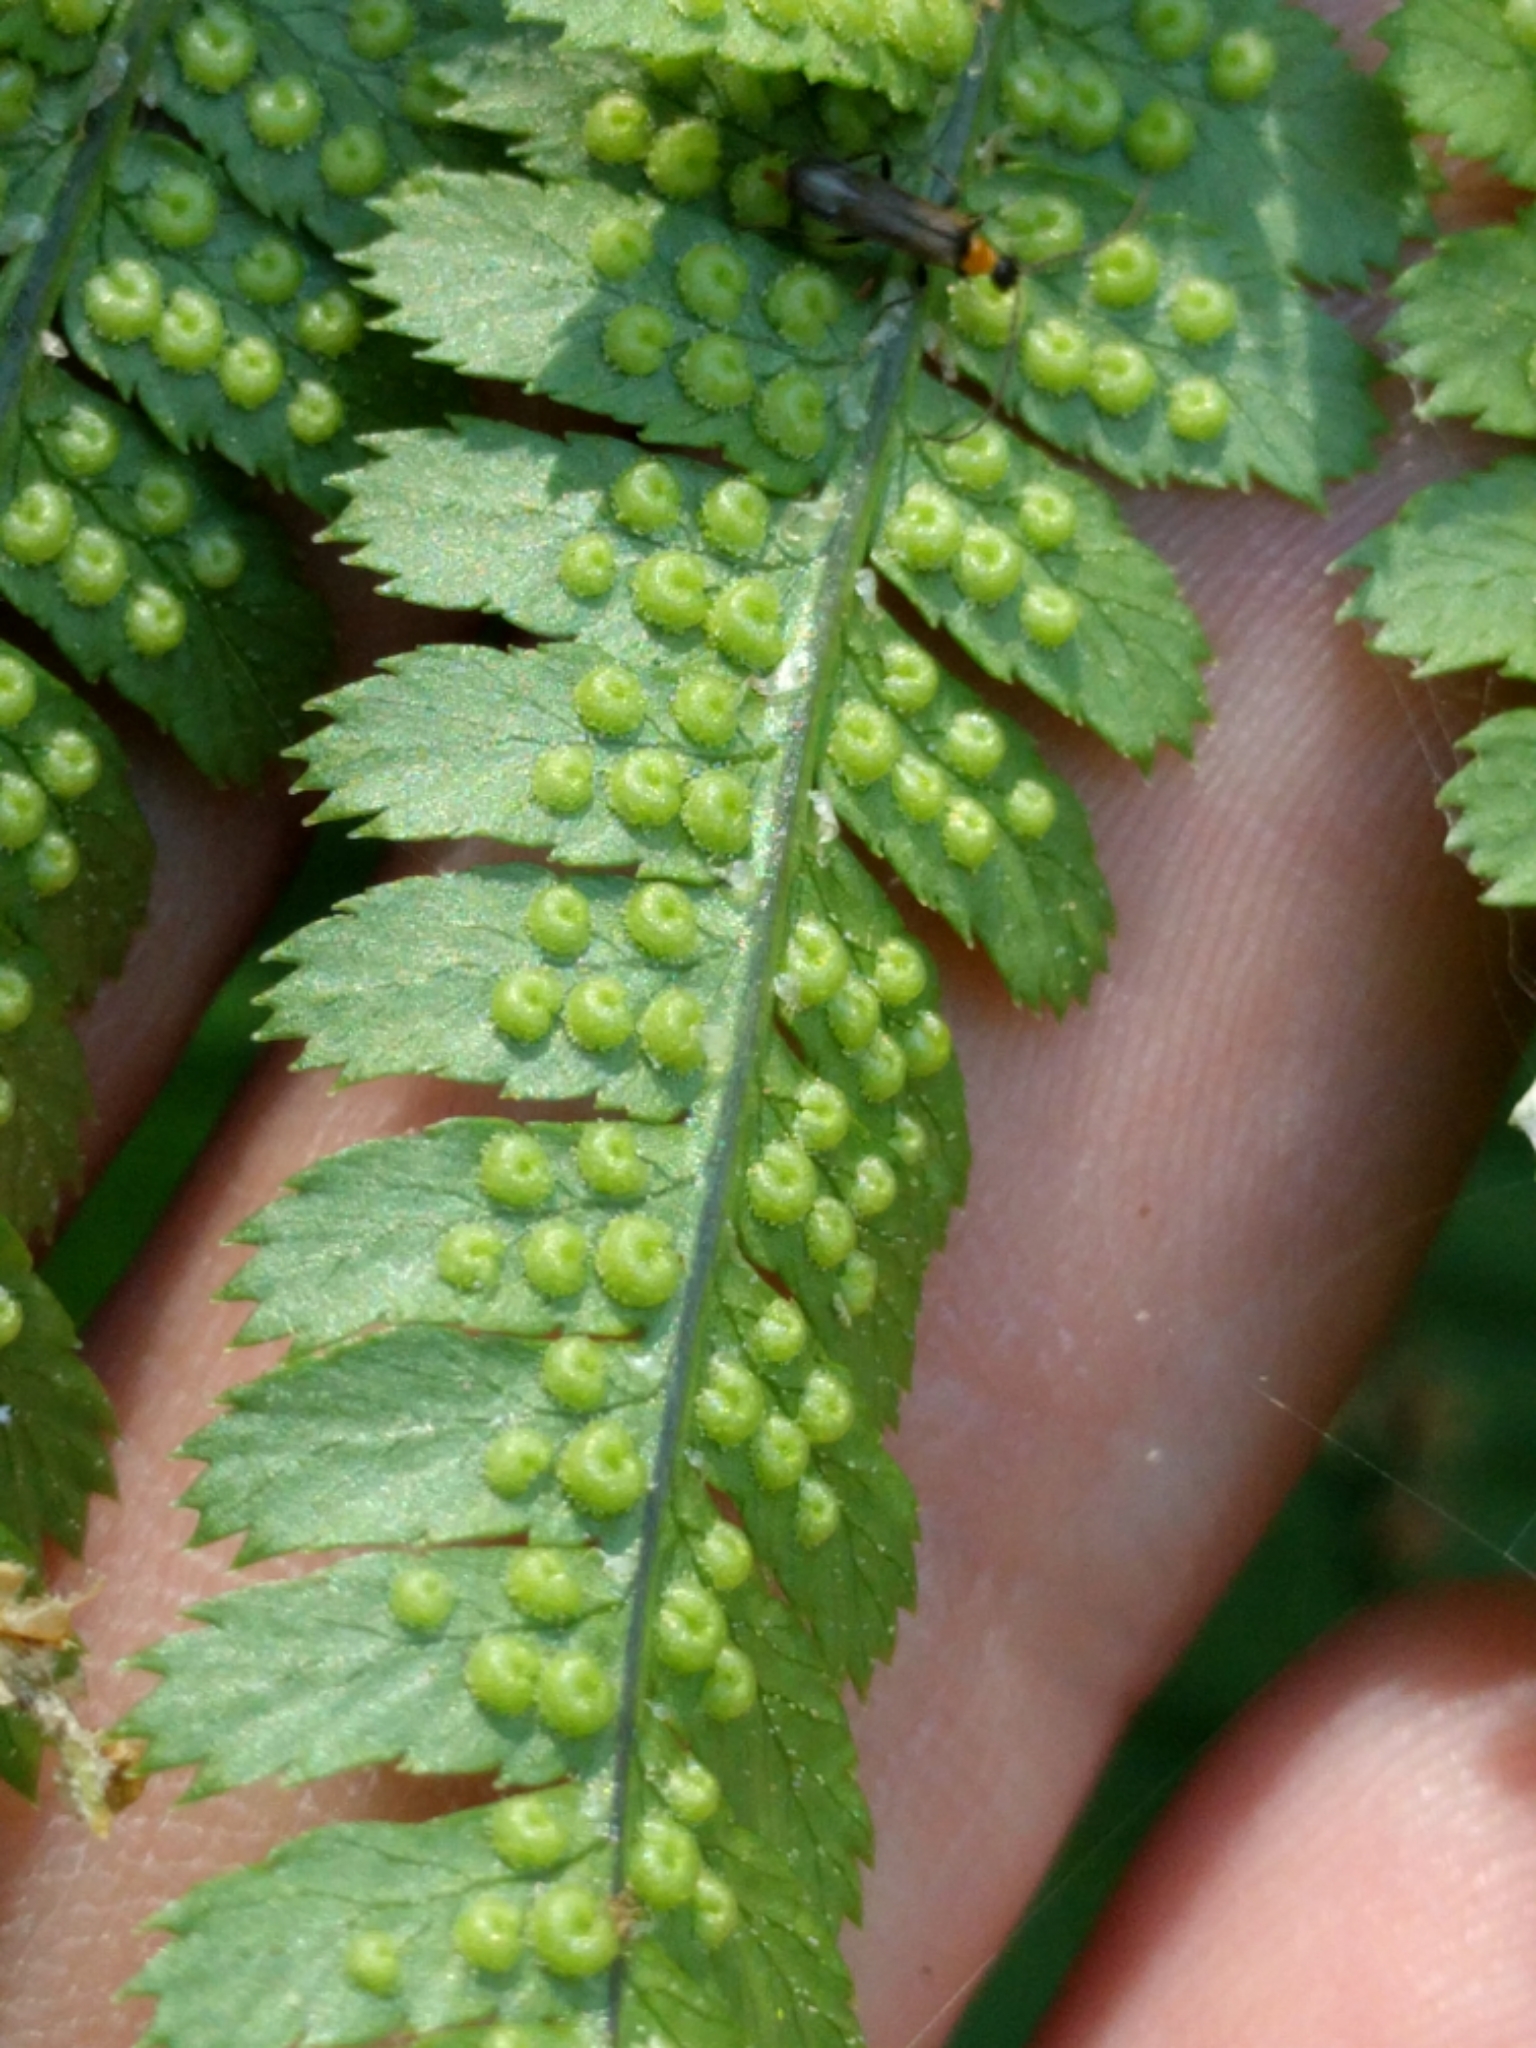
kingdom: Plantae
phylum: Tracheophyta
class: Polypodiopsida
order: Polypodiales
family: Dryopteridaceae
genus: Dryopteris
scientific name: Dryopteris arguta
